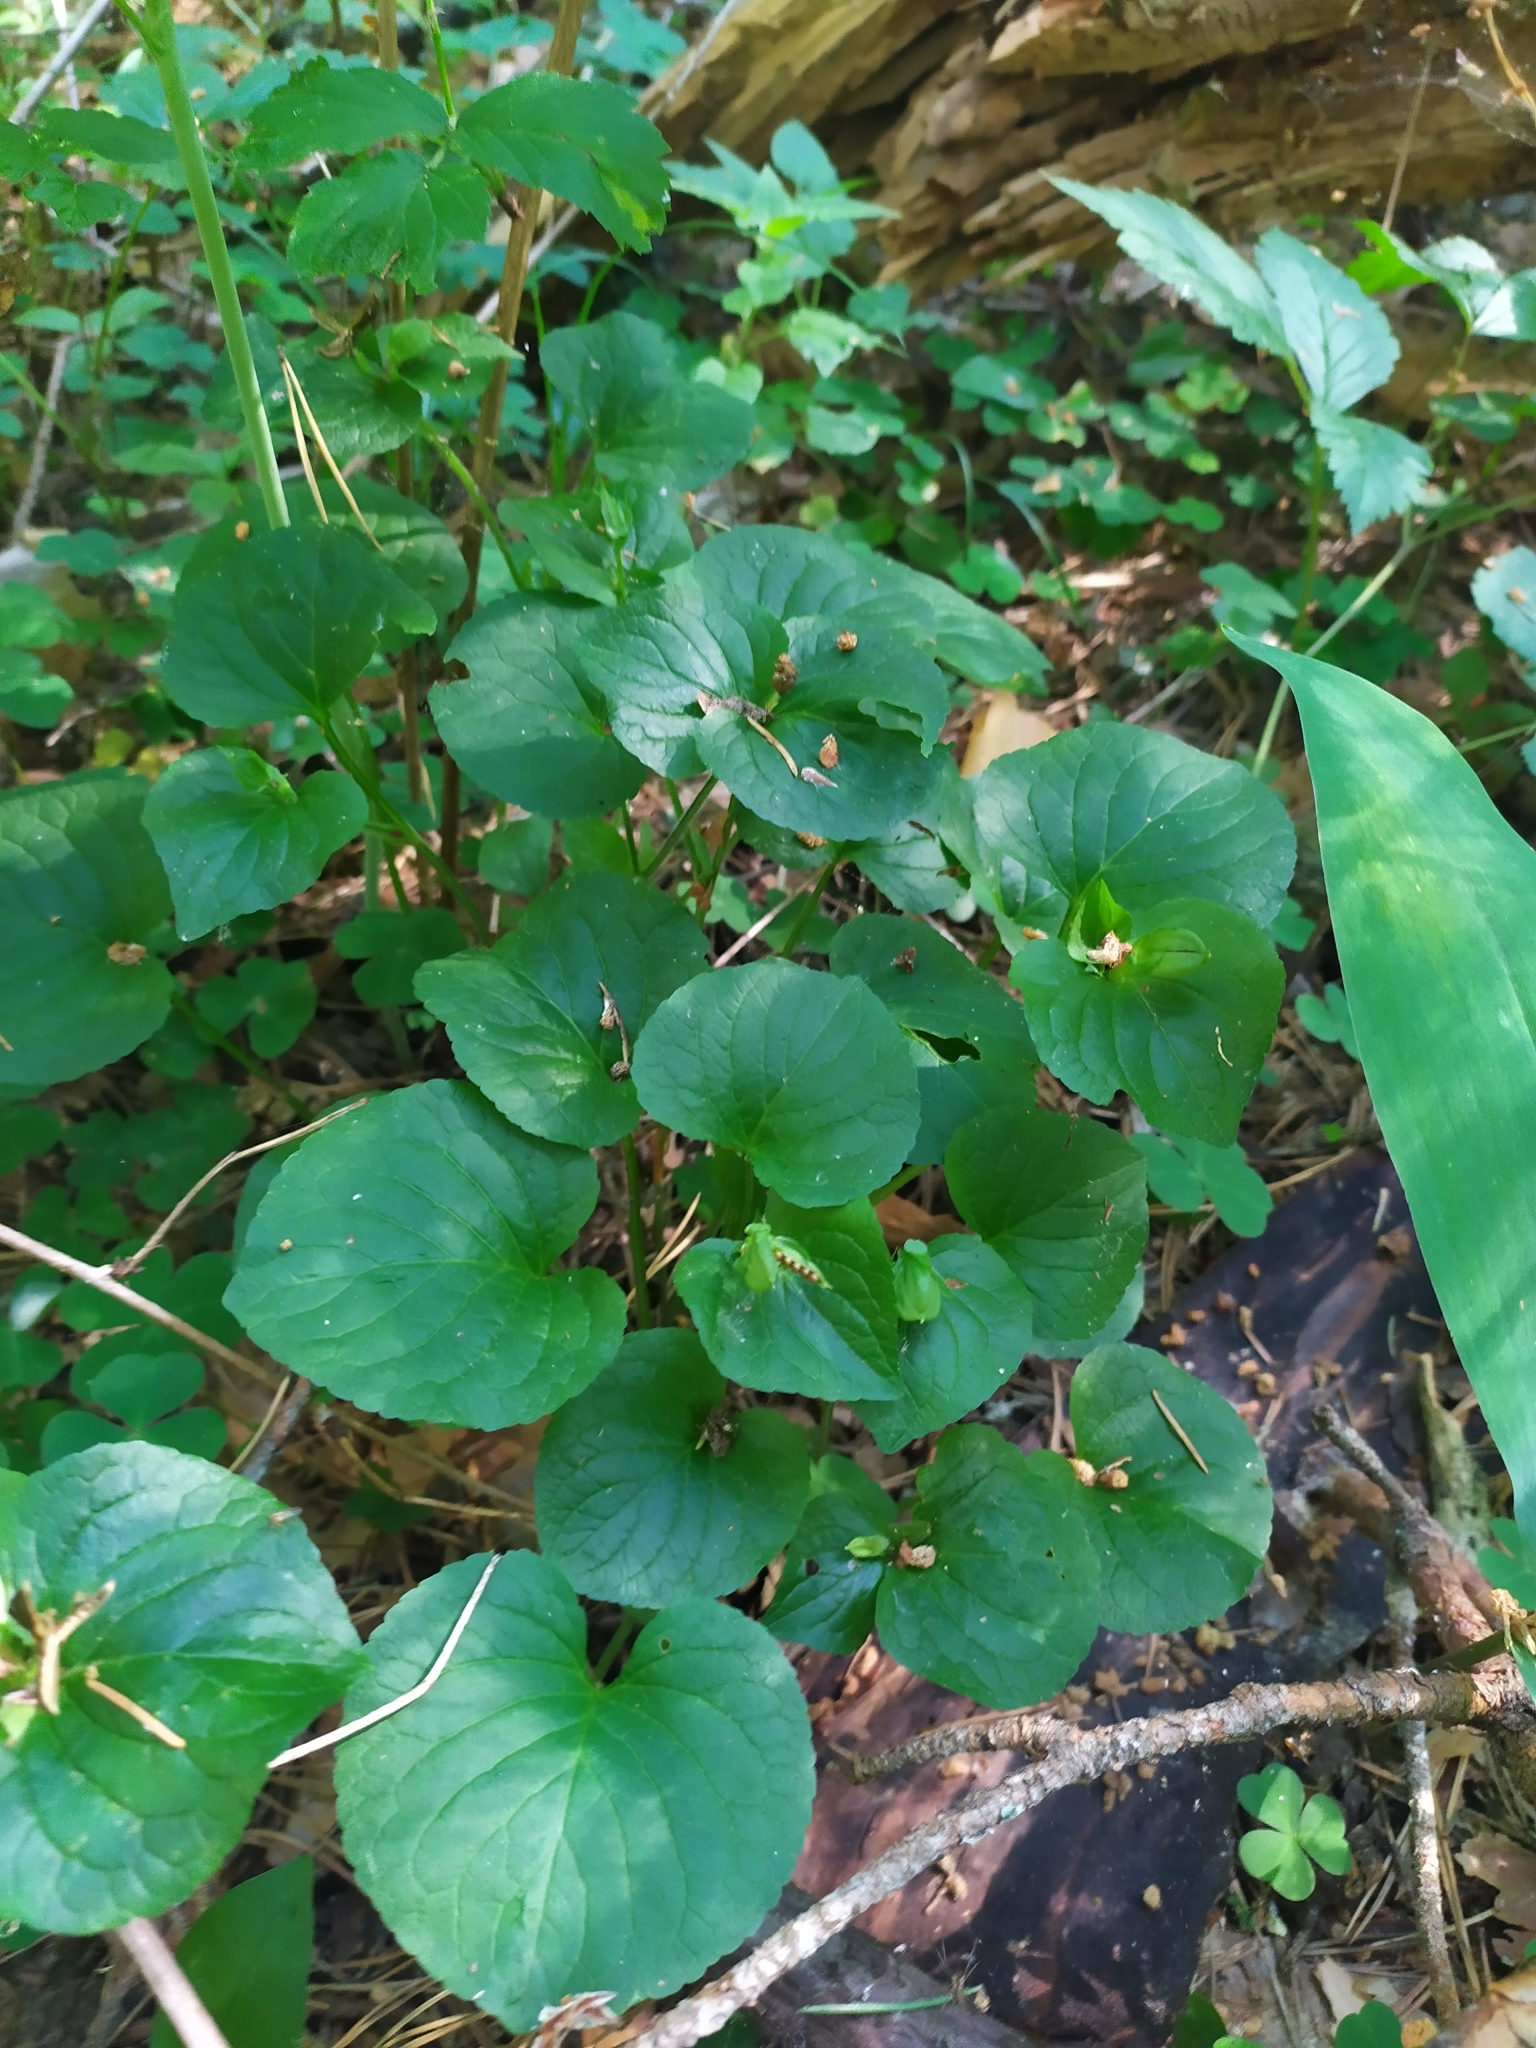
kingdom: Plantae
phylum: Tracheophyta
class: Magnoliopsida
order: Malpighiales
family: Violaceae
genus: Viola
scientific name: Viola mirabilis
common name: Wonder violet
